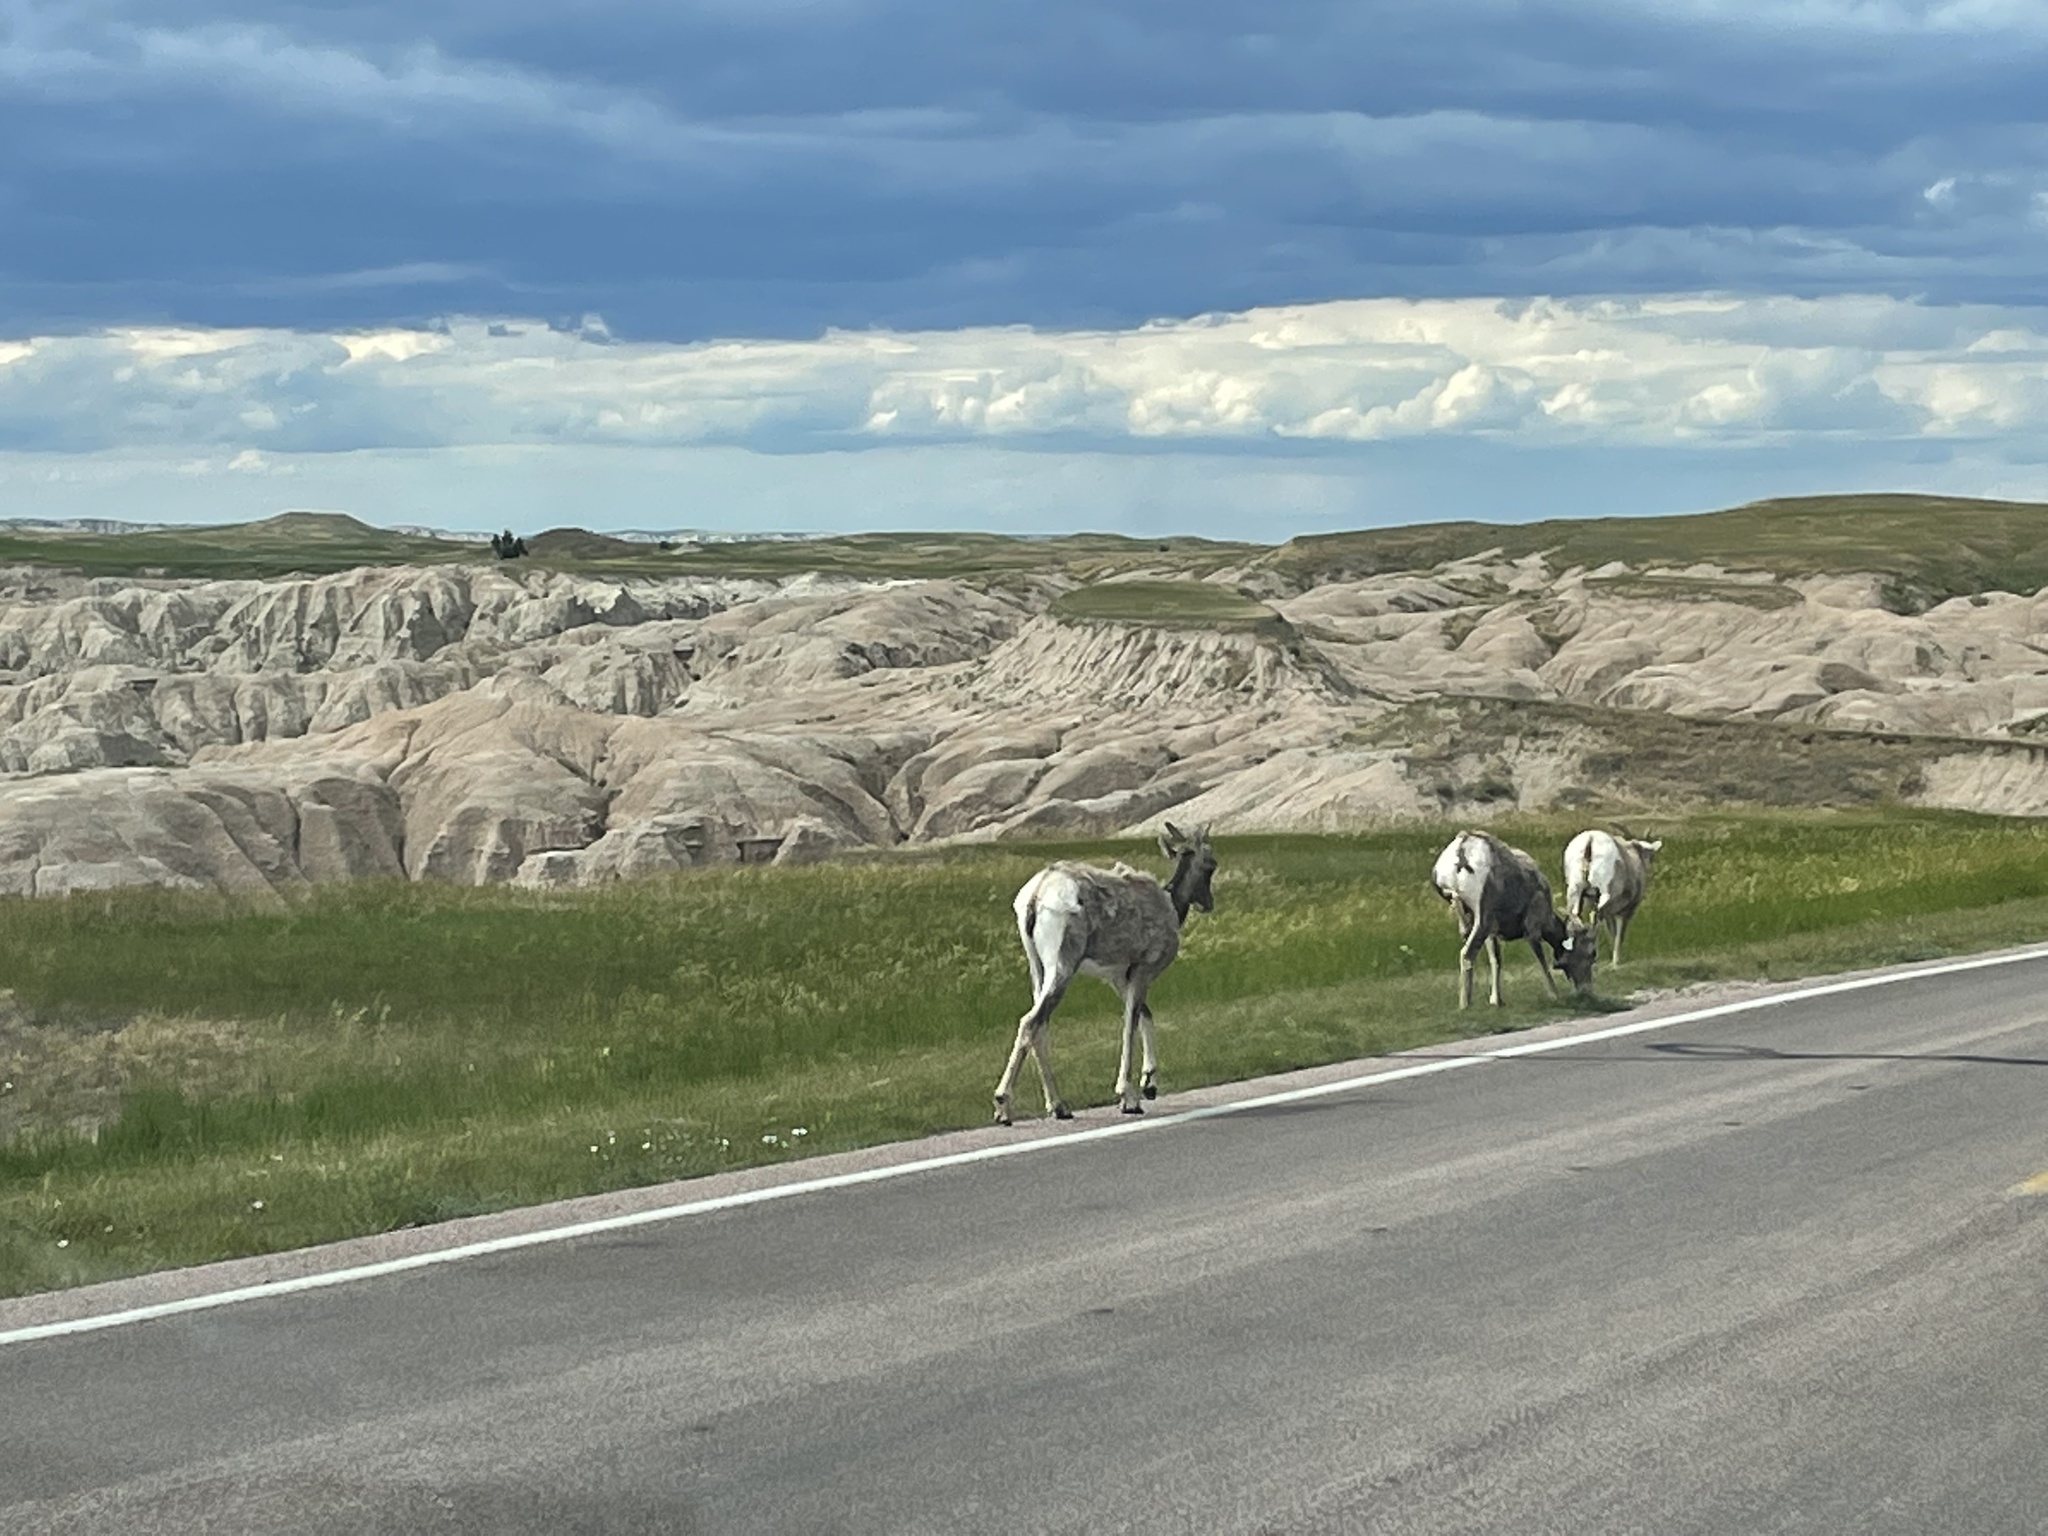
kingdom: Animalia
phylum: Chordata
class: Mammalia
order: Artiodactyla
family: Bovidae
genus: Ovis
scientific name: Ovis canadensis
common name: Bighorn sheep
